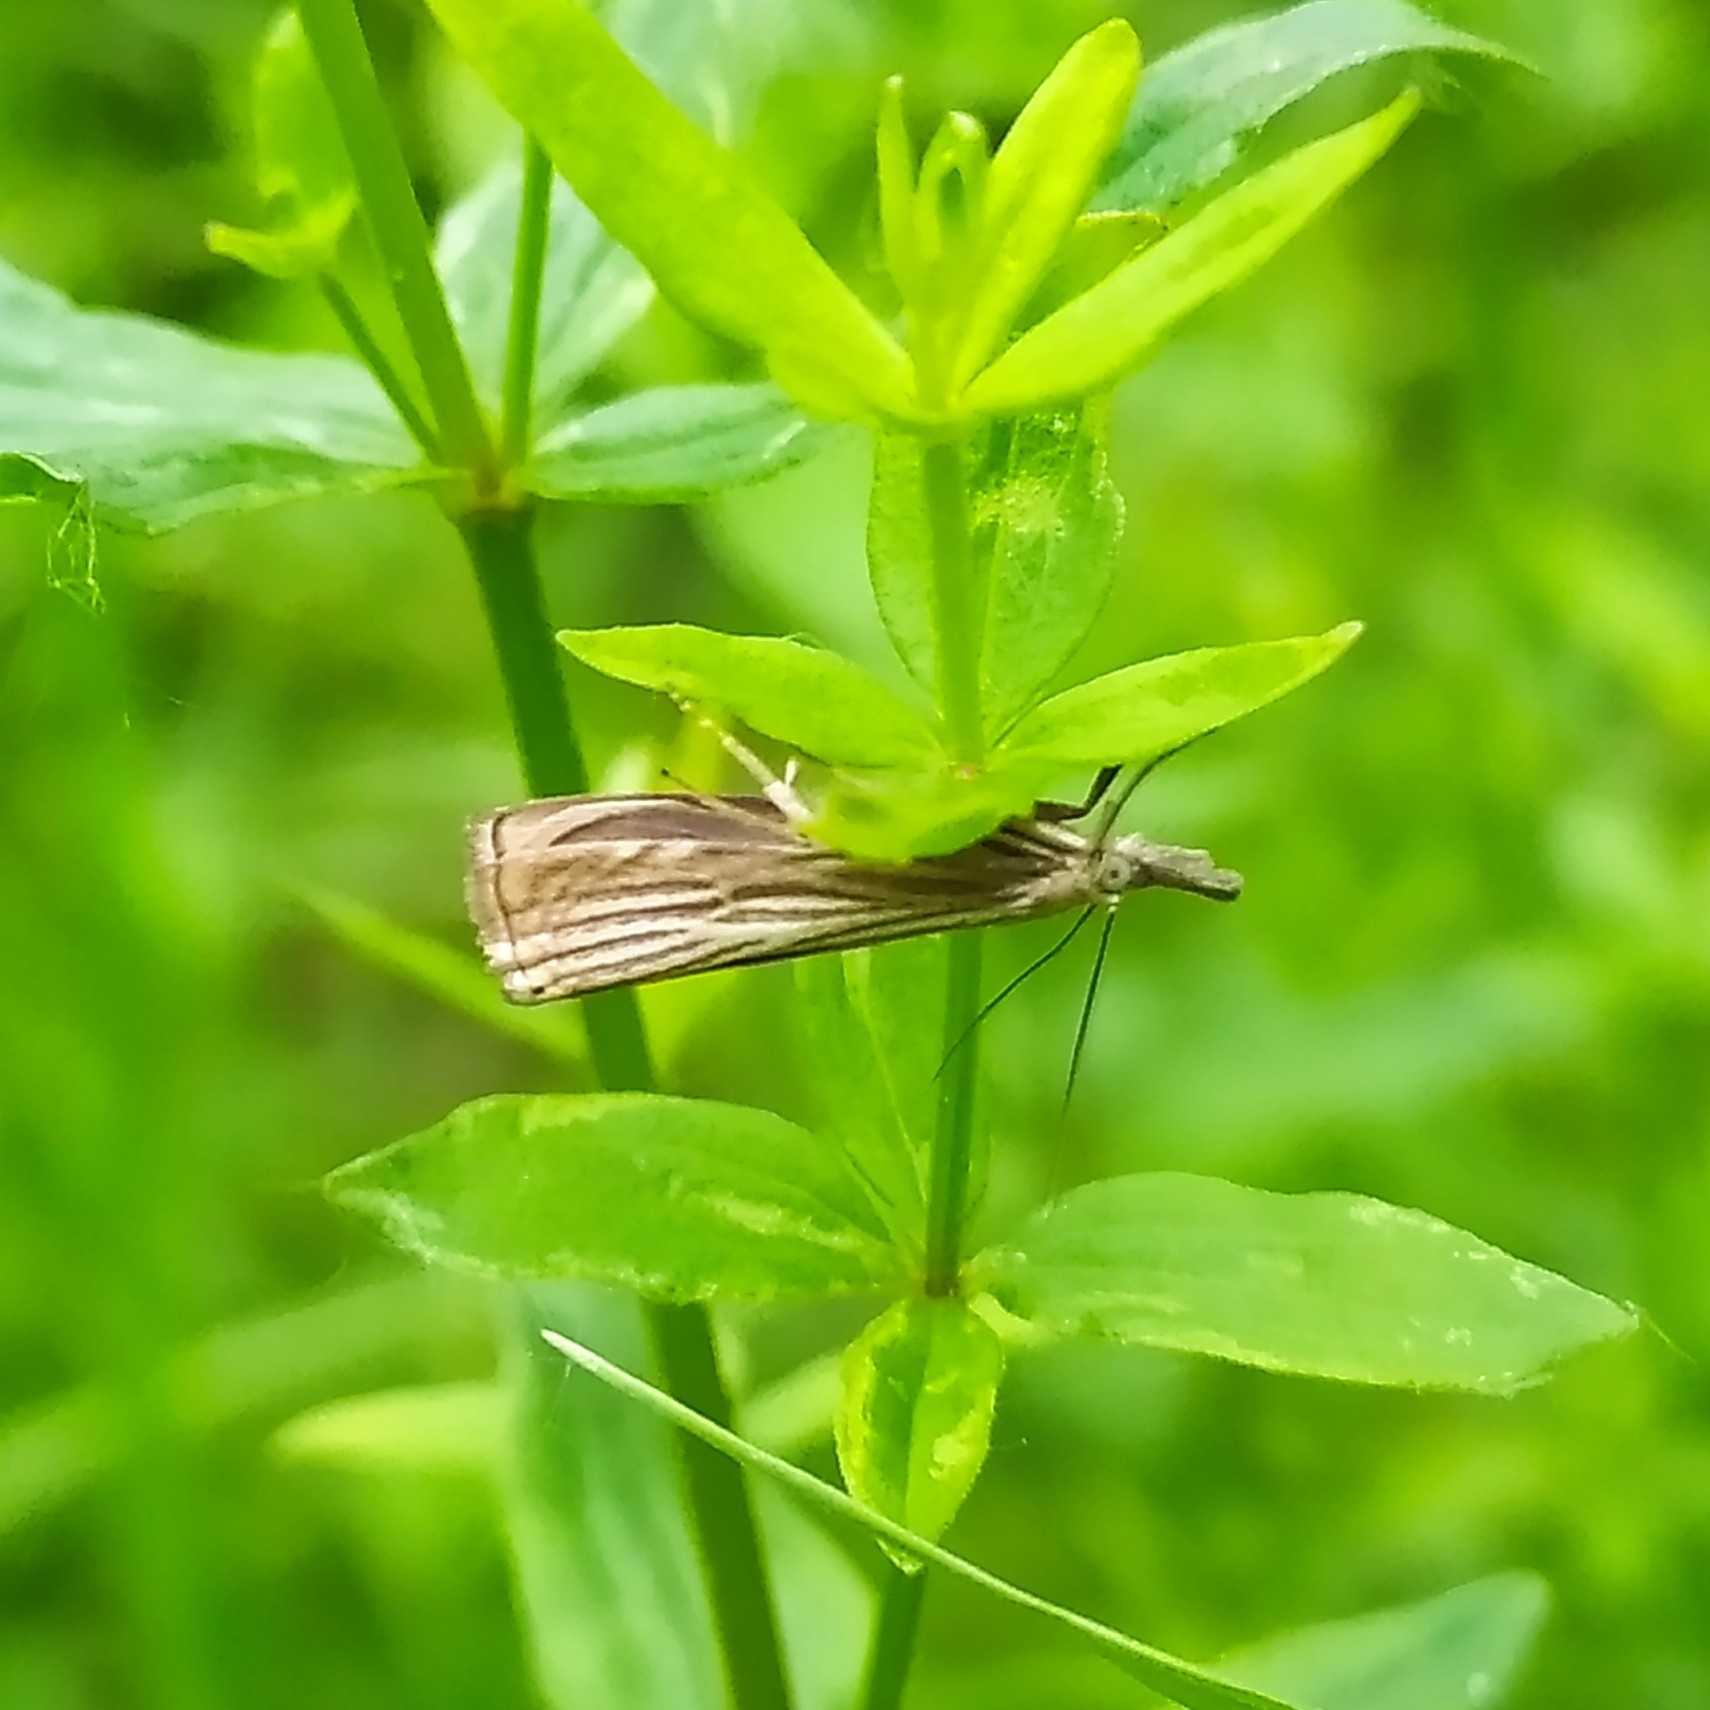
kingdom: Animalia
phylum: Arthropoda
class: Insecta
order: Lepidoptera
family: Crambidae
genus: Chrysoteuchia
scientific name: Chrysoteuchia culmella
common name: Garden grass-veneer
